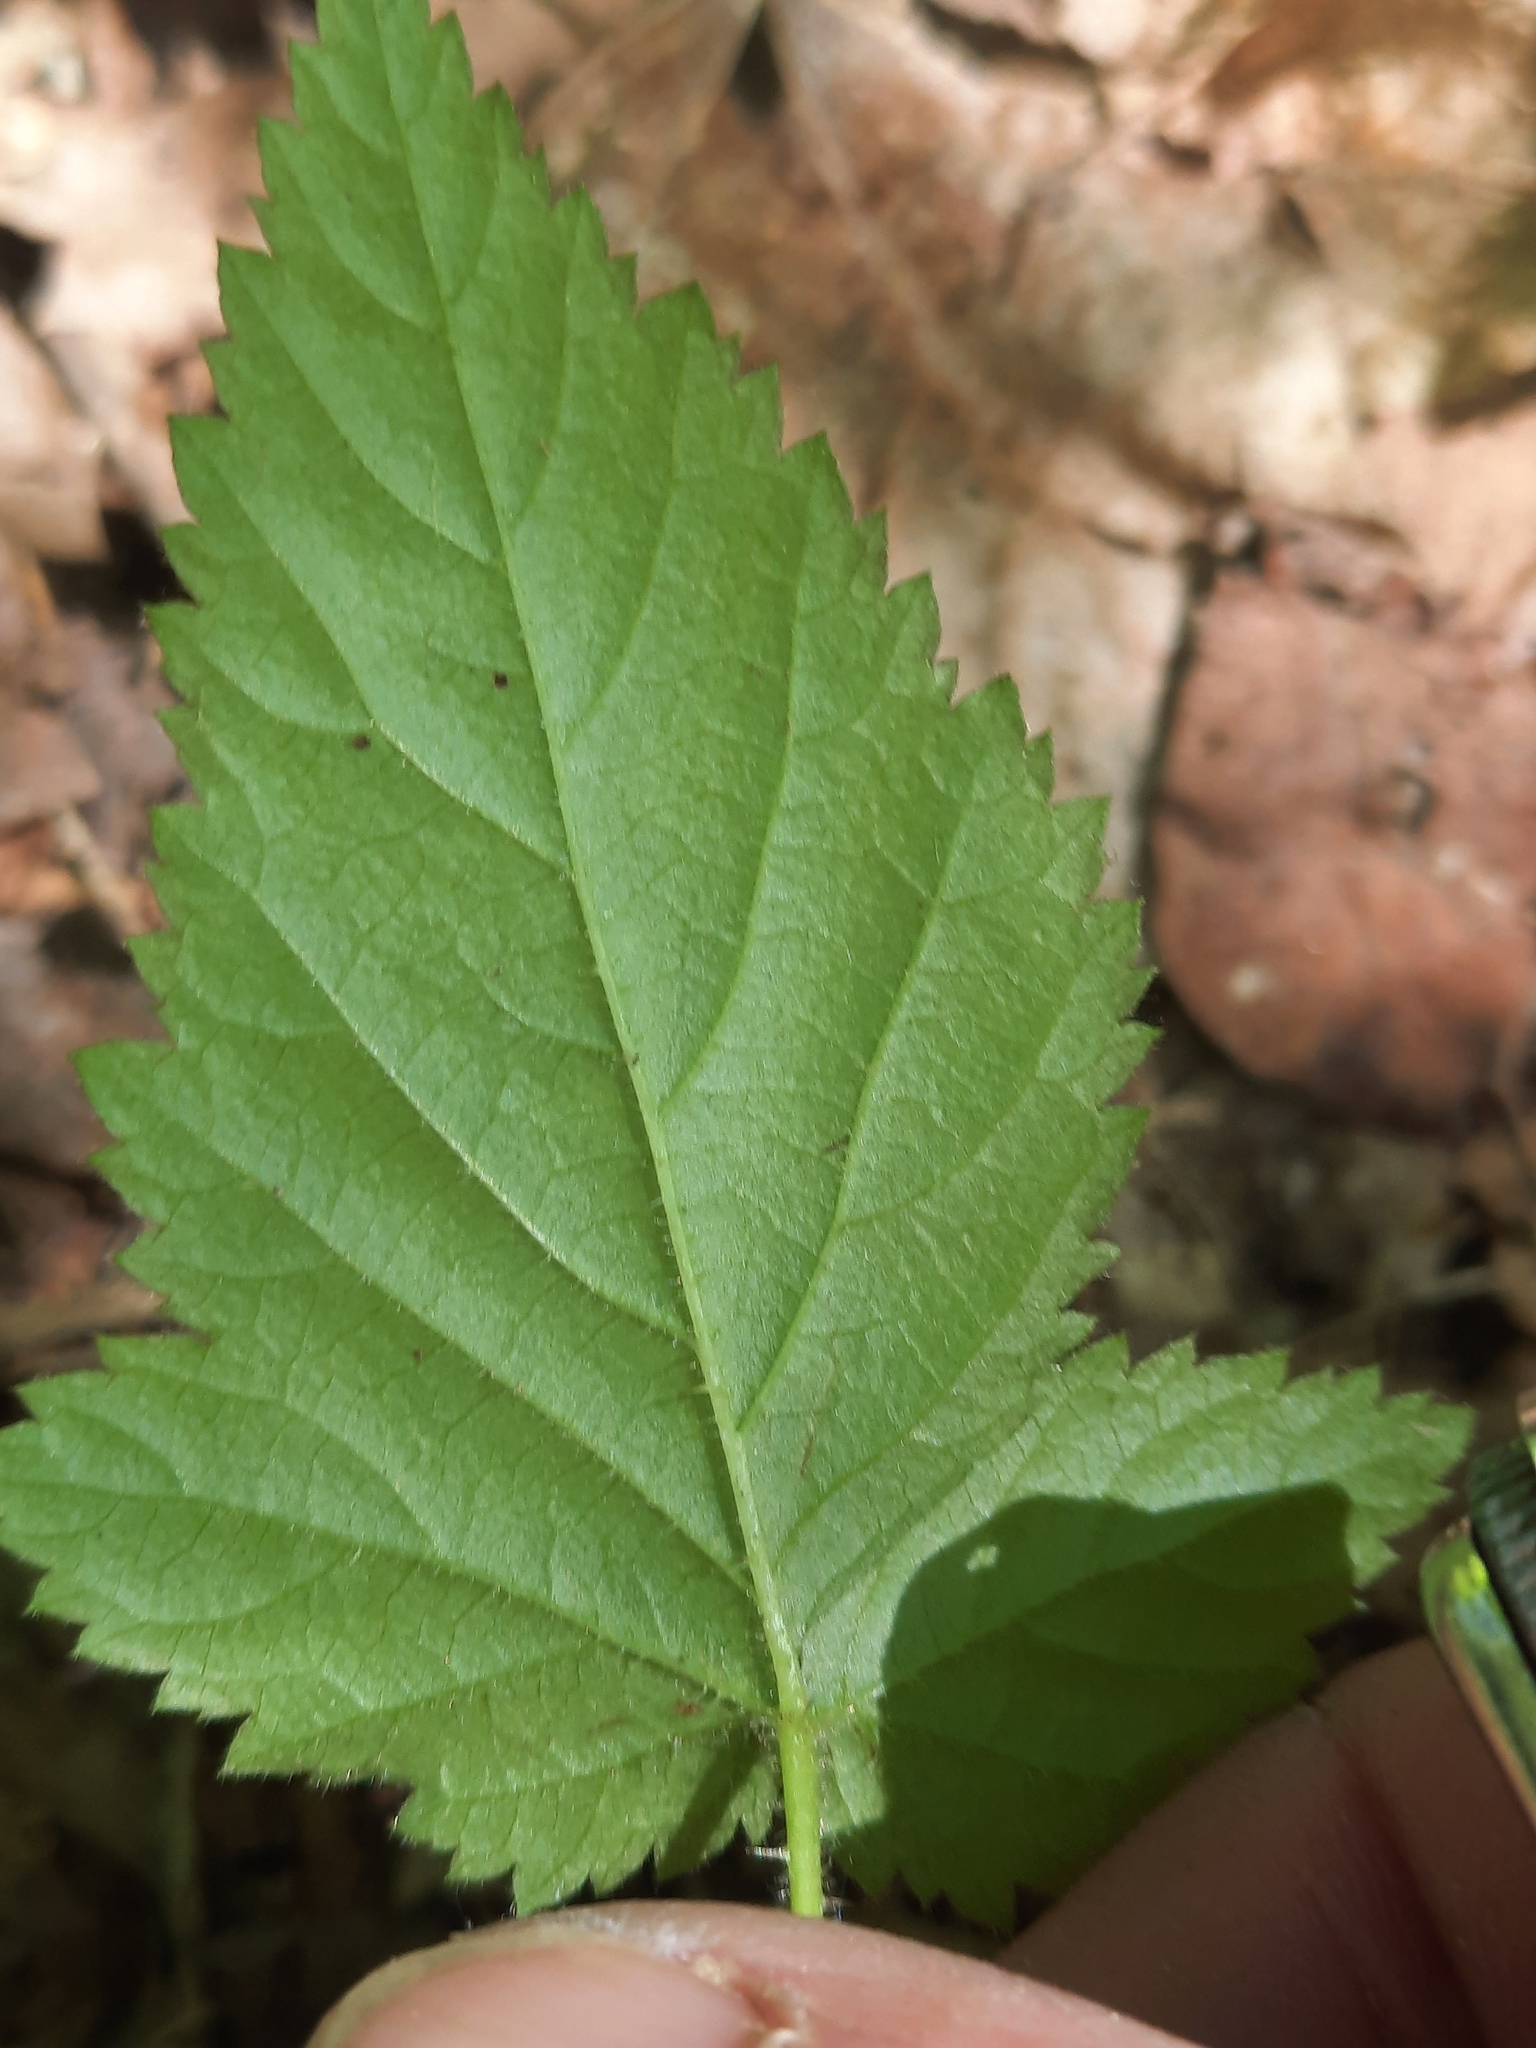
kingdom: Plantae
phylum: Tracheophyta
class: Magnoliopsida
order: Rosales
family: Rosaceae
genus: Rubus
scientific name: Rubus phoenicolasius
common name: Japanese wineberry
